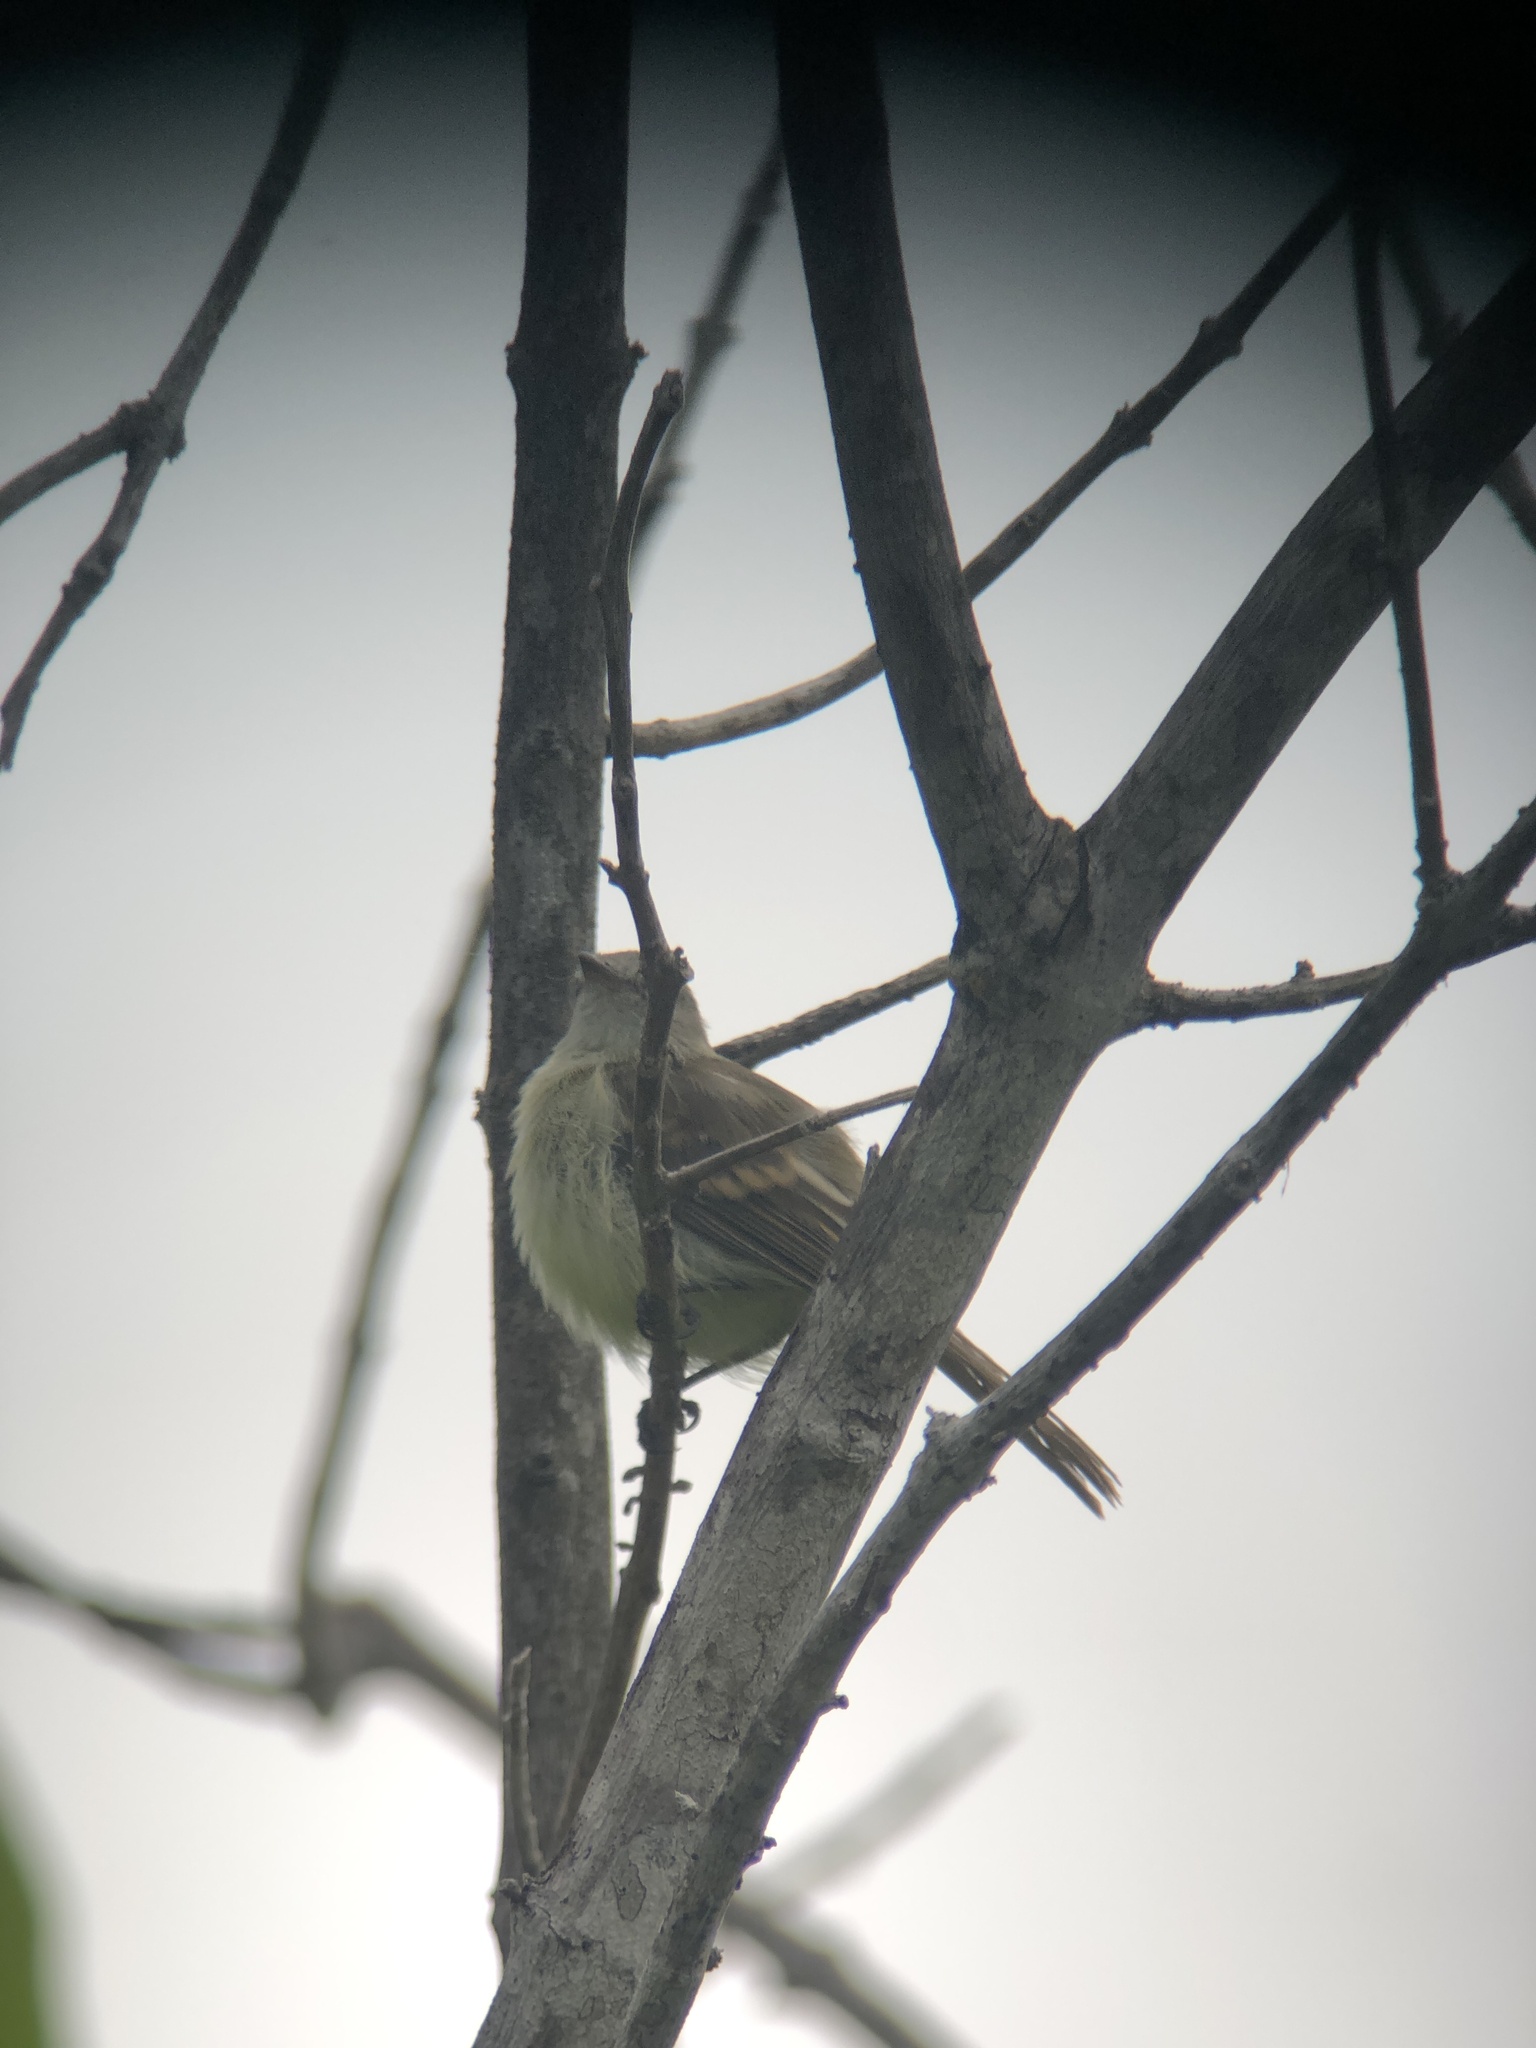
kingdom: Animalia
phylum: Chordata
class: Aves
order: Passeriformes
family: Tyrannidae
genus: Phaeomyias
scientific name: Phaeomyias murina
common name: Mouse-colored tyrannulet
